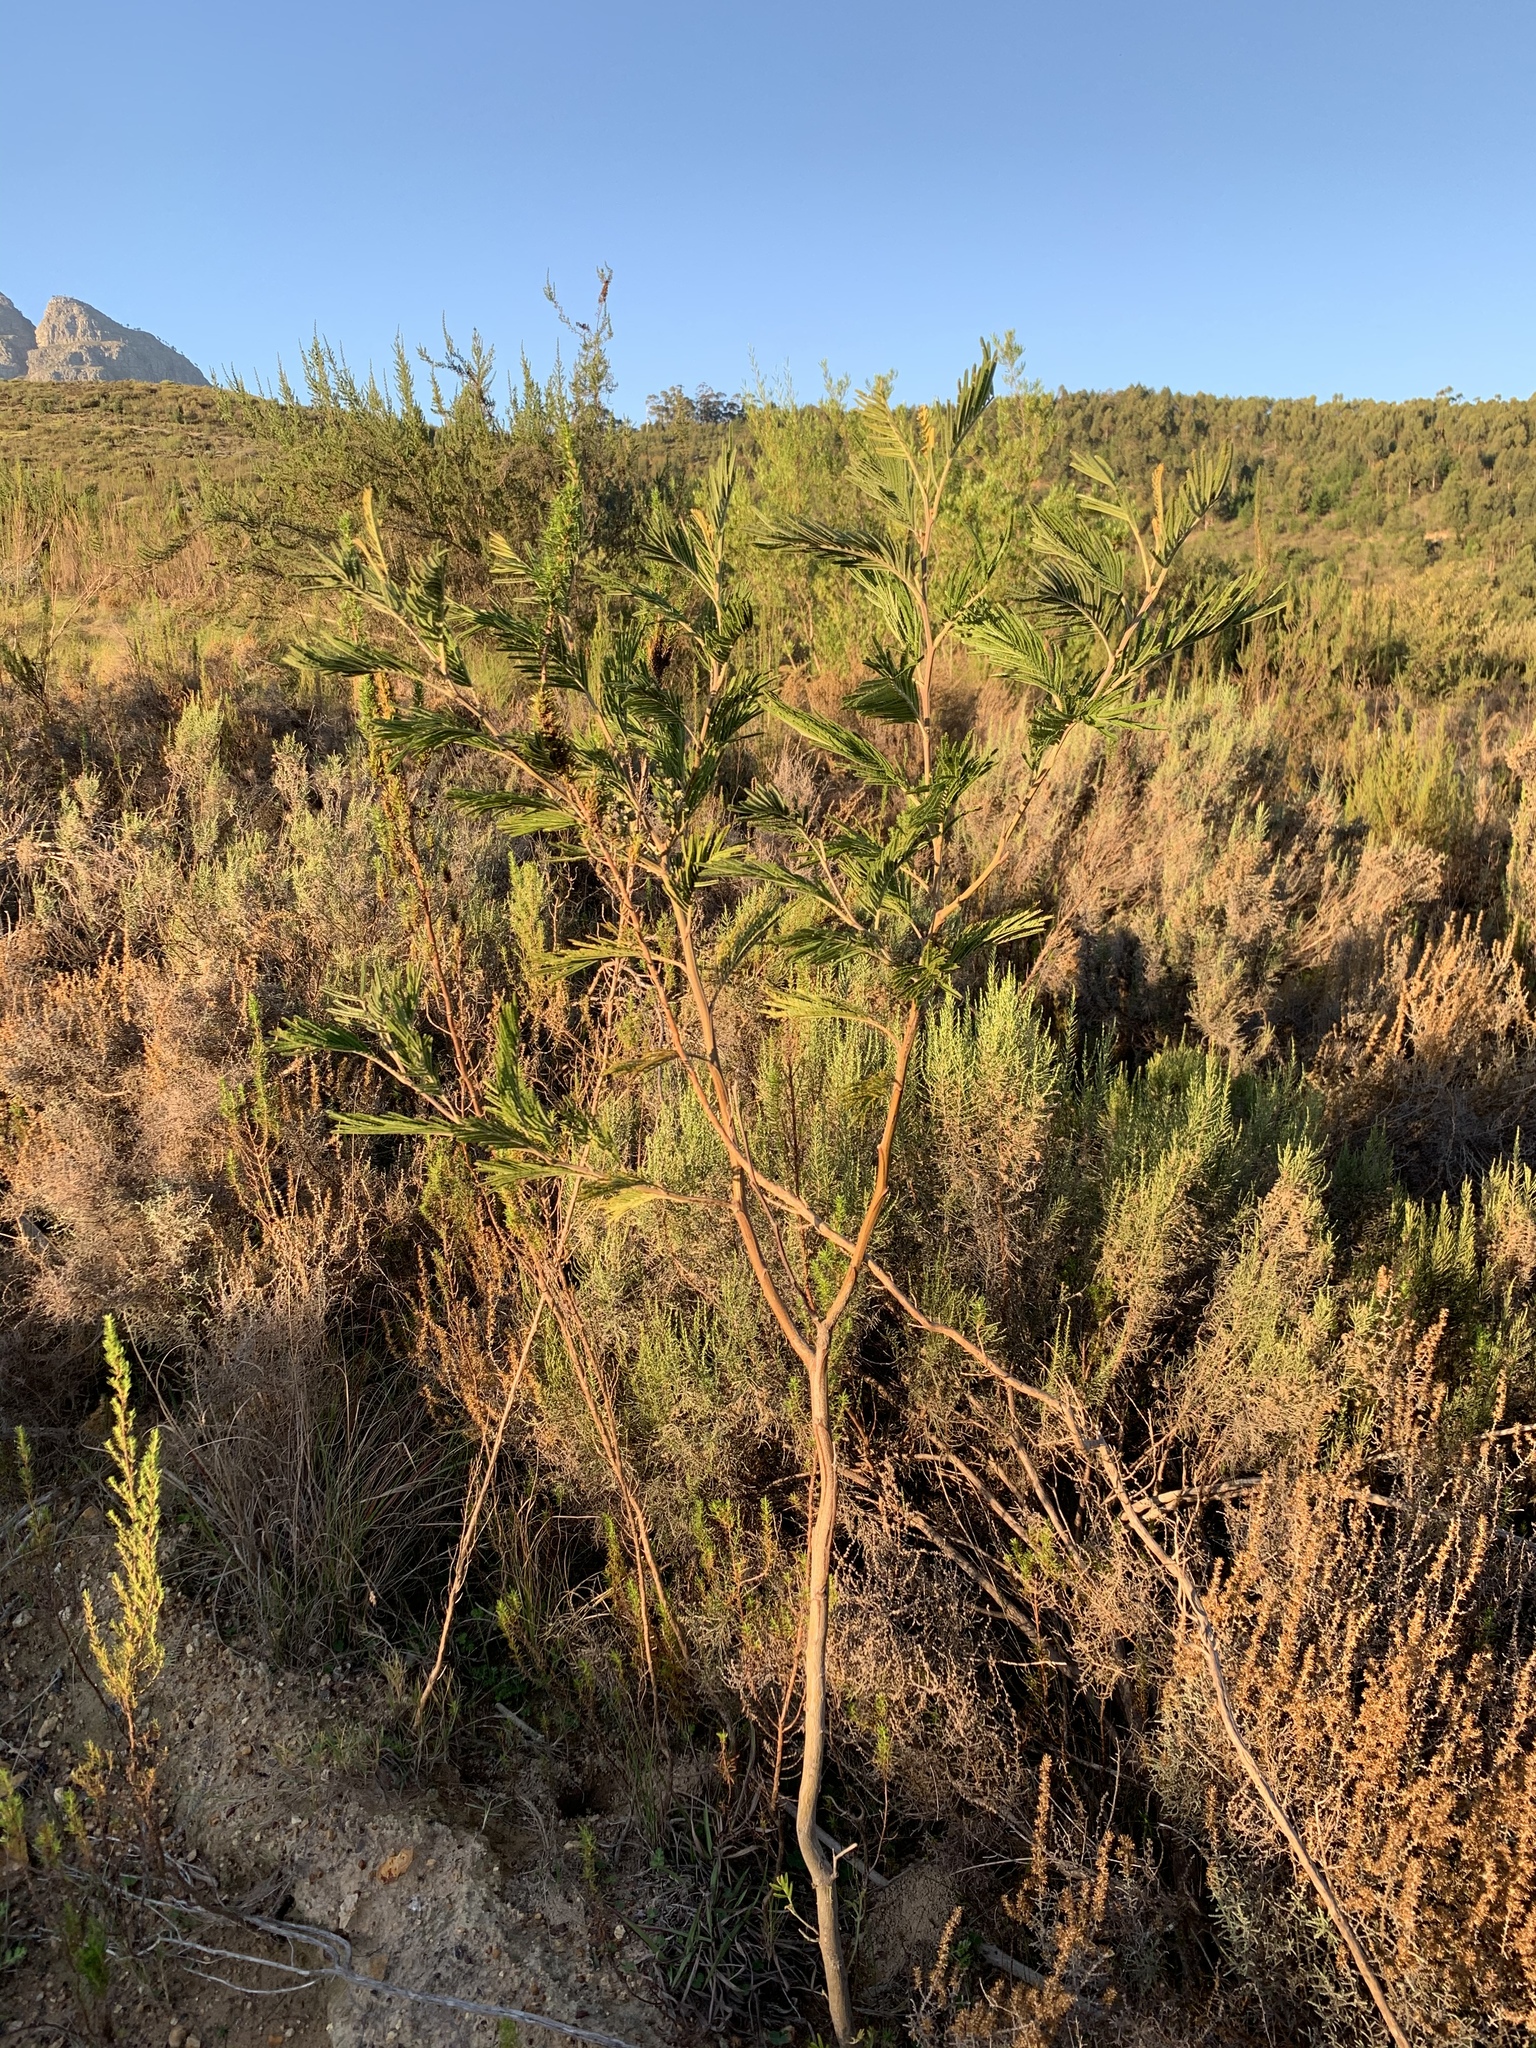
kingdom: Plantae
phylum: Tracheophyta
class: Magnoliopsida
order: Fabales
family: Fabaceae
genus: Acacia
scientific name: Acacia mearnsii
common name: Black wattle
